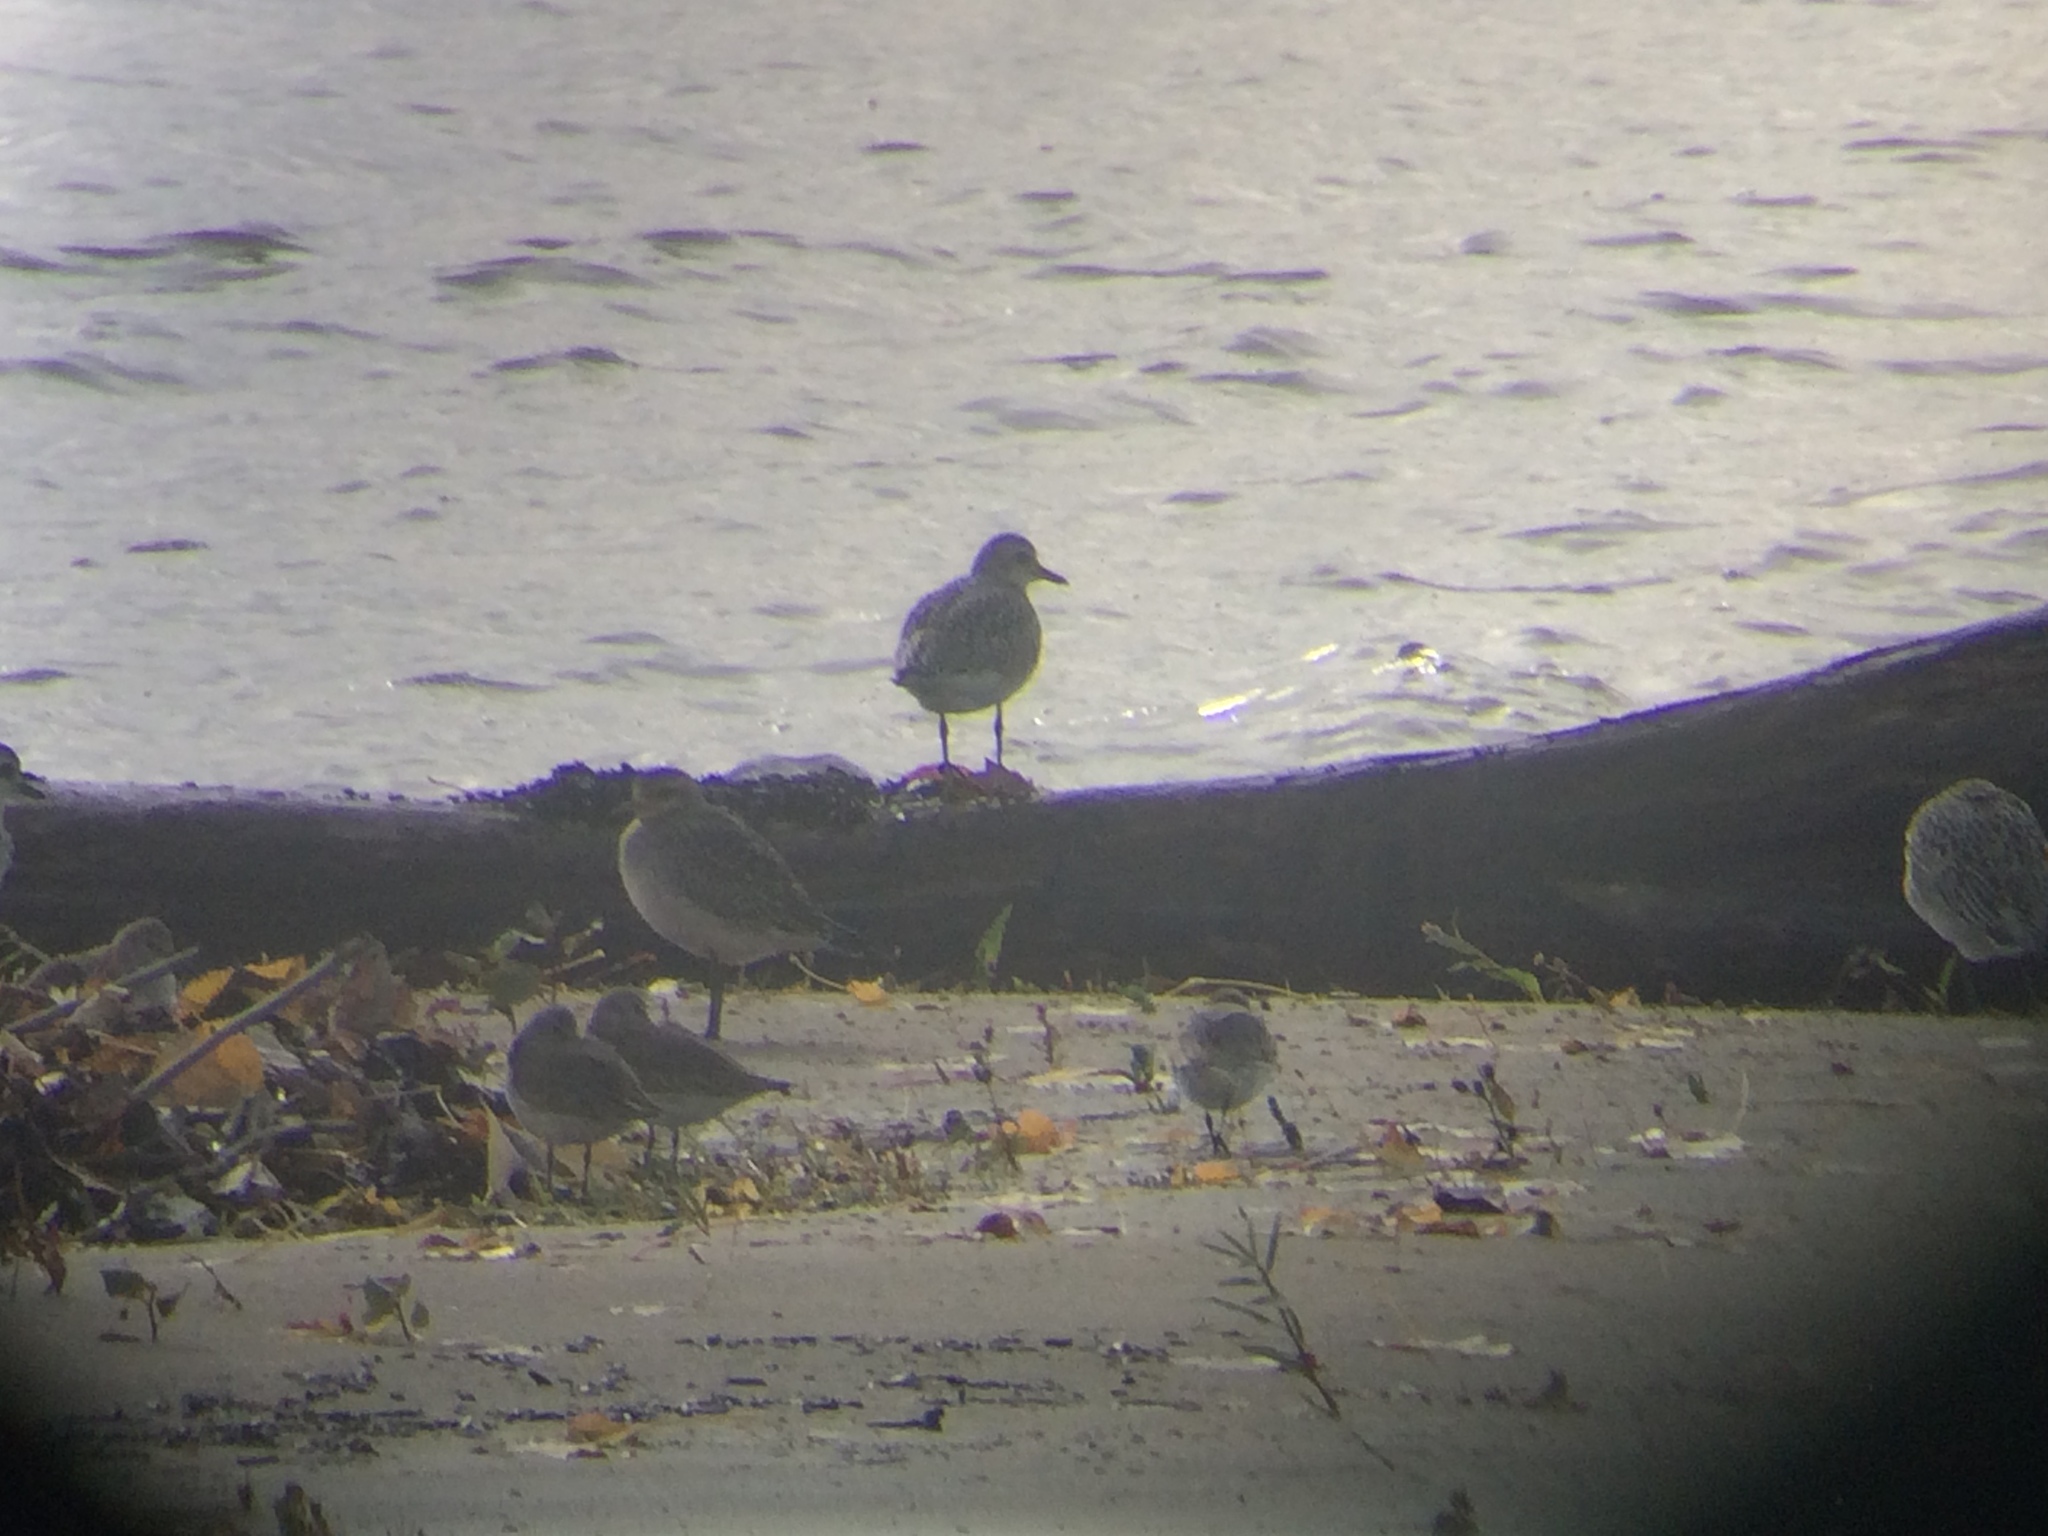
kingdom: Animalia
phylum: Chordata
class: Aves
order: Charadriiformes
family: Charadriidae
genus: Pluvialis
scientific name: Pluvialis squatarola
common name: Grey plover
